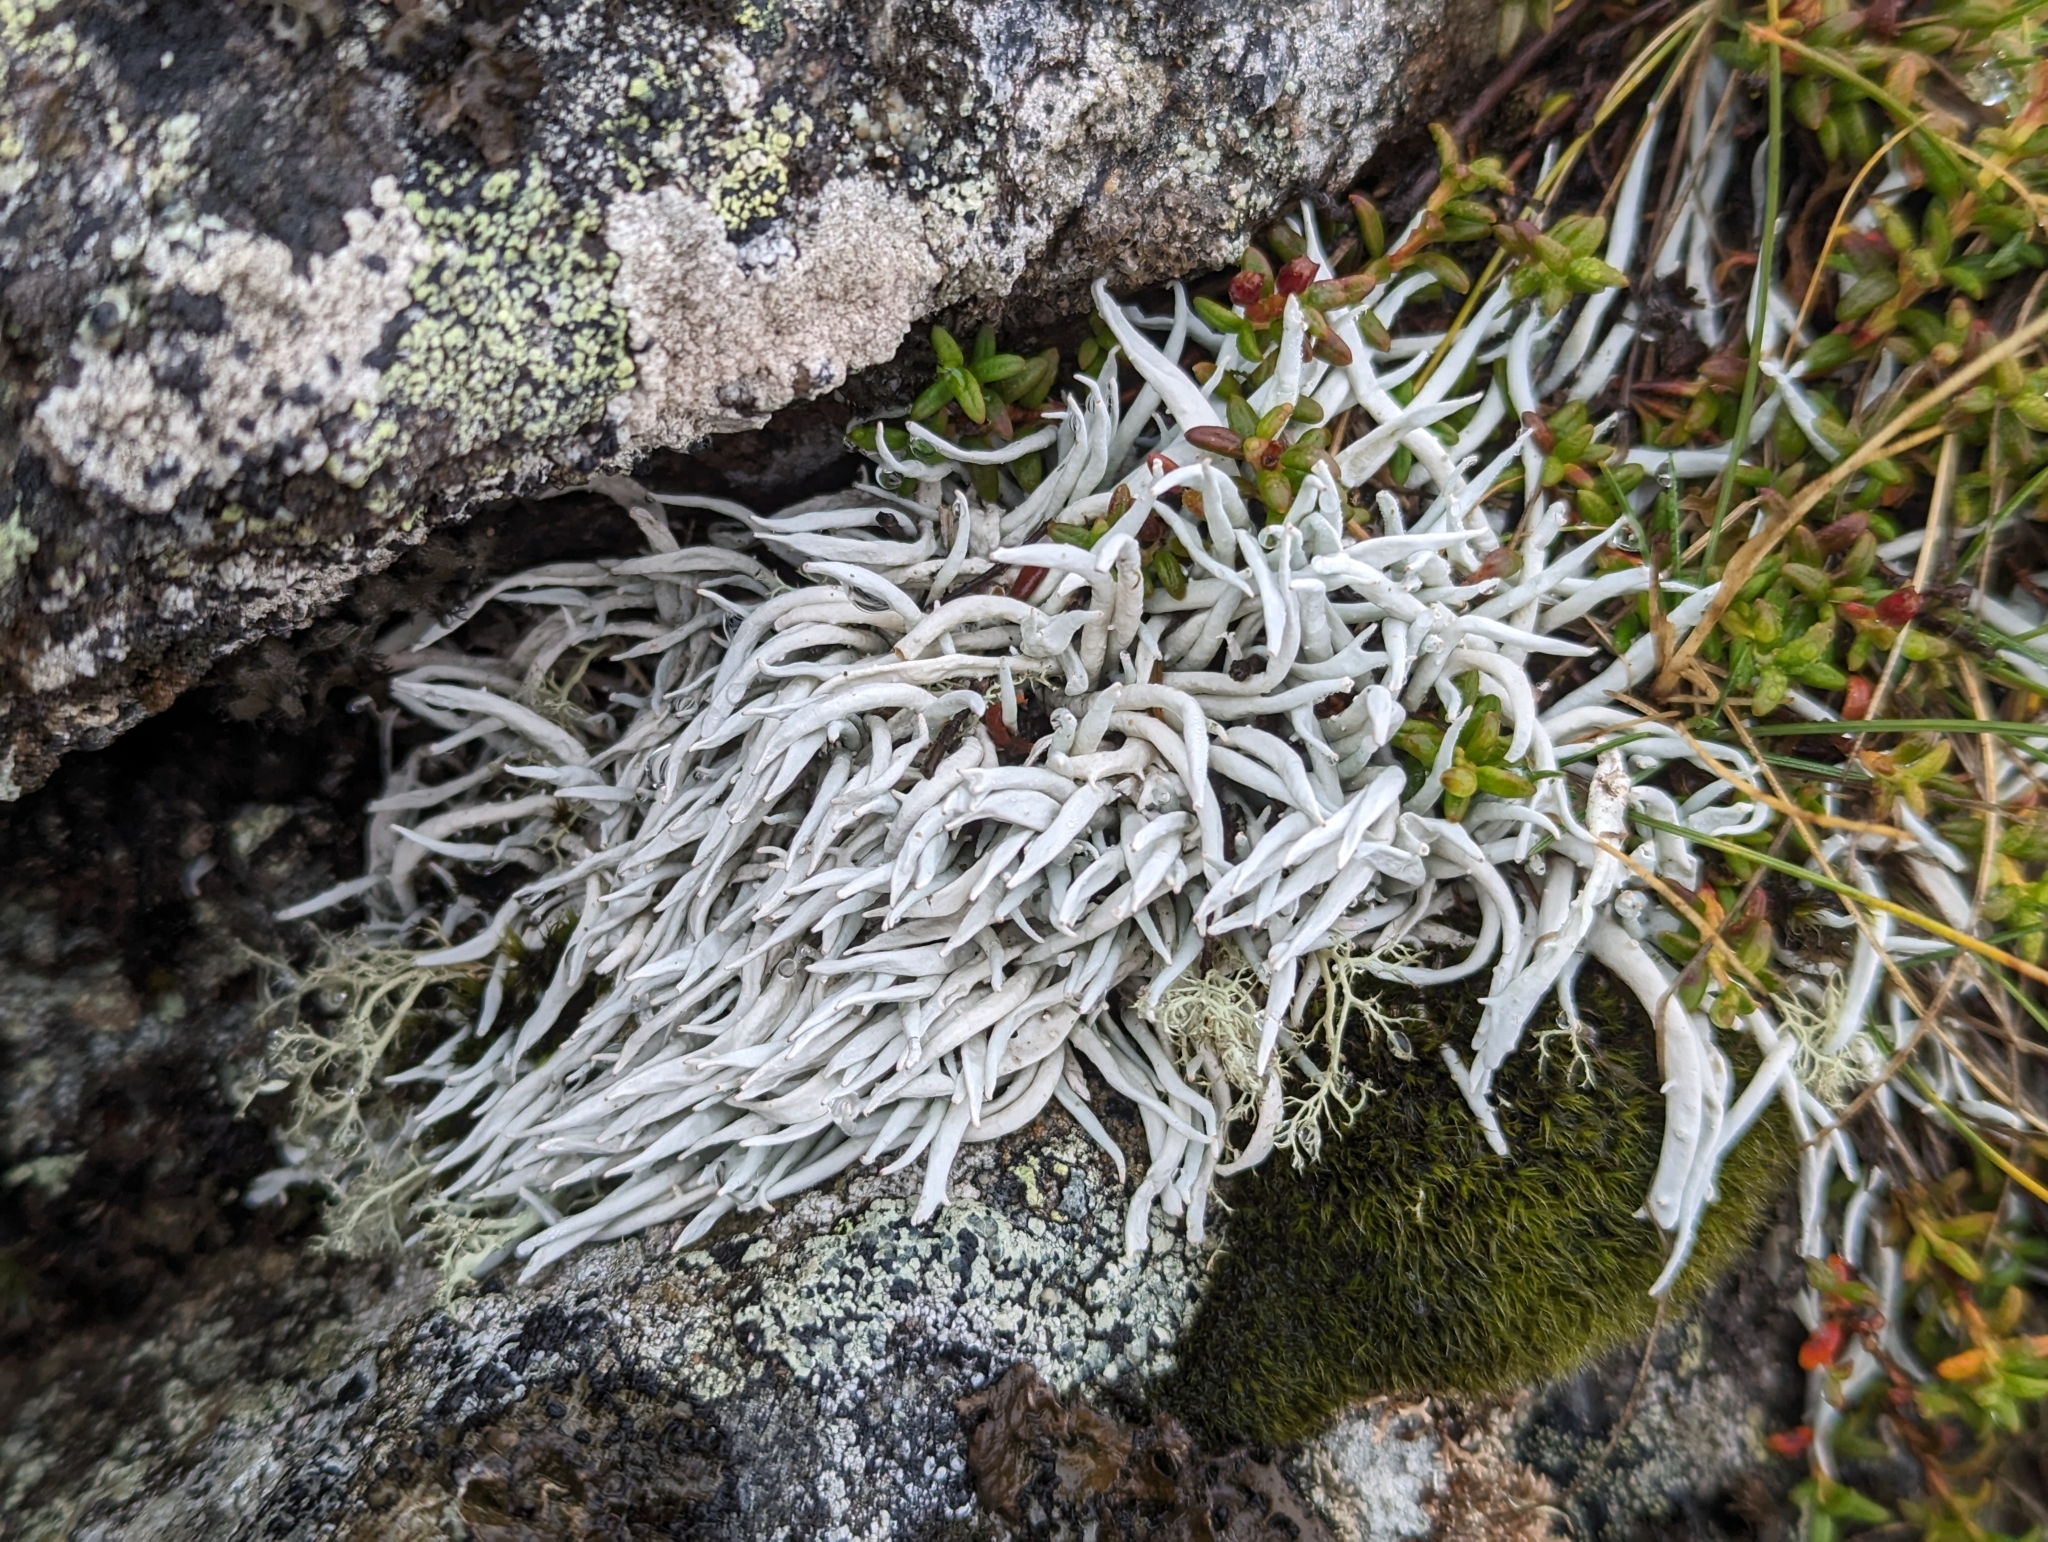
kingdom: Fungi
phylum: Ascomycota
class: Lecanoromycetes
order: Pertusariales
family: Icmadophilaceae
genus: Thamnolia
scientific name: Thamnolia vermicularis
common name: Whiteworm lichen
